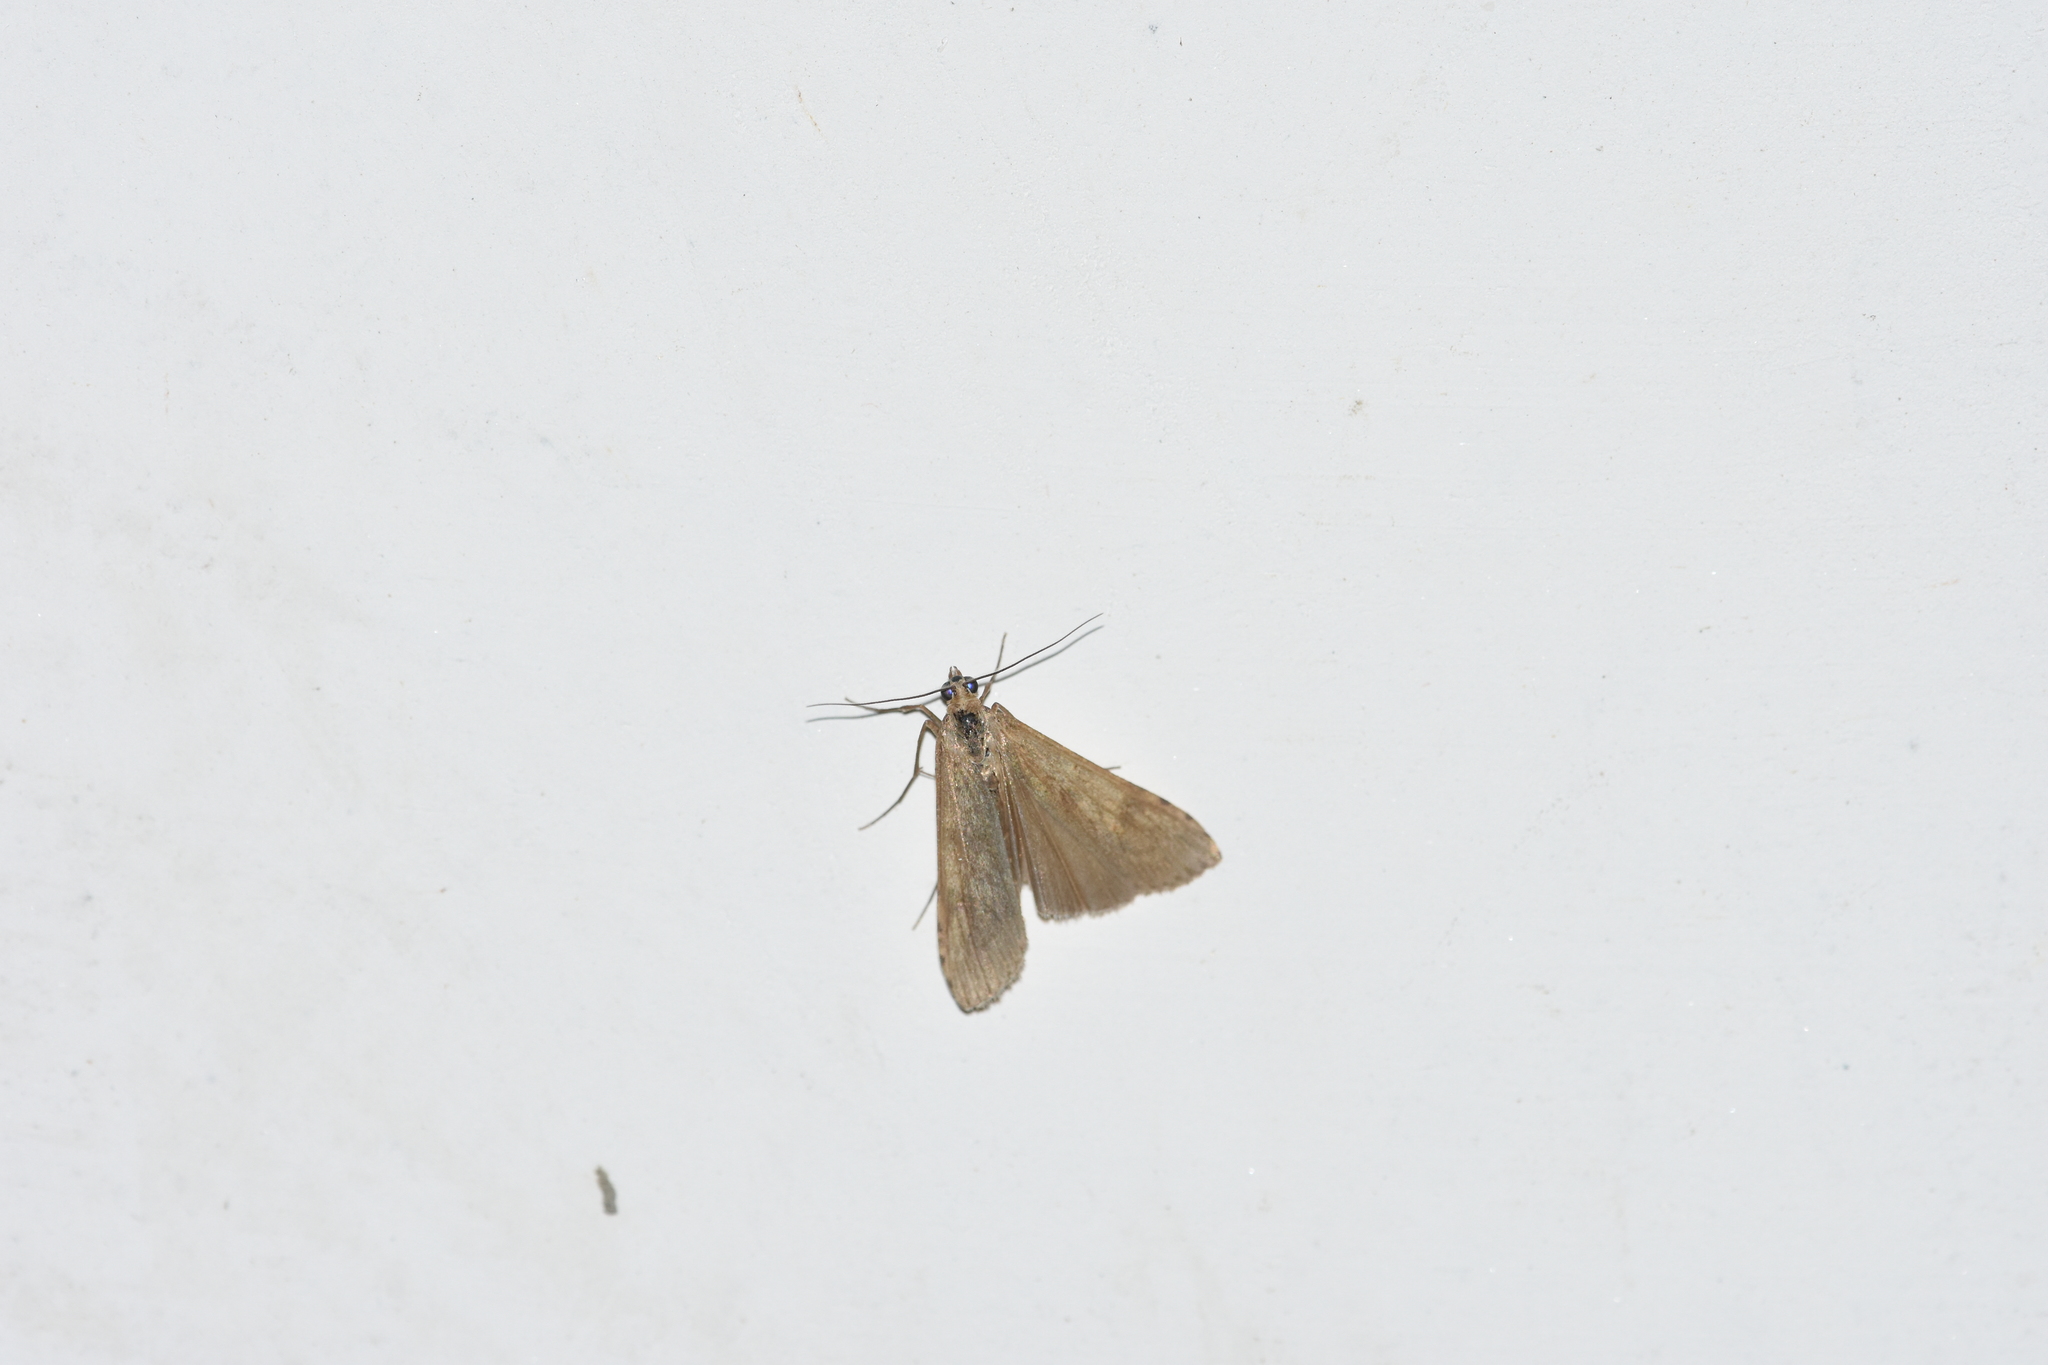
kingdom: Animalia
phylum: Arthropoda
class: Insecta
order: Lepidoptera
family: Crambidae
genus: Nomophila
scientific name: Nomophila noctuella
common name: Rush veneer
